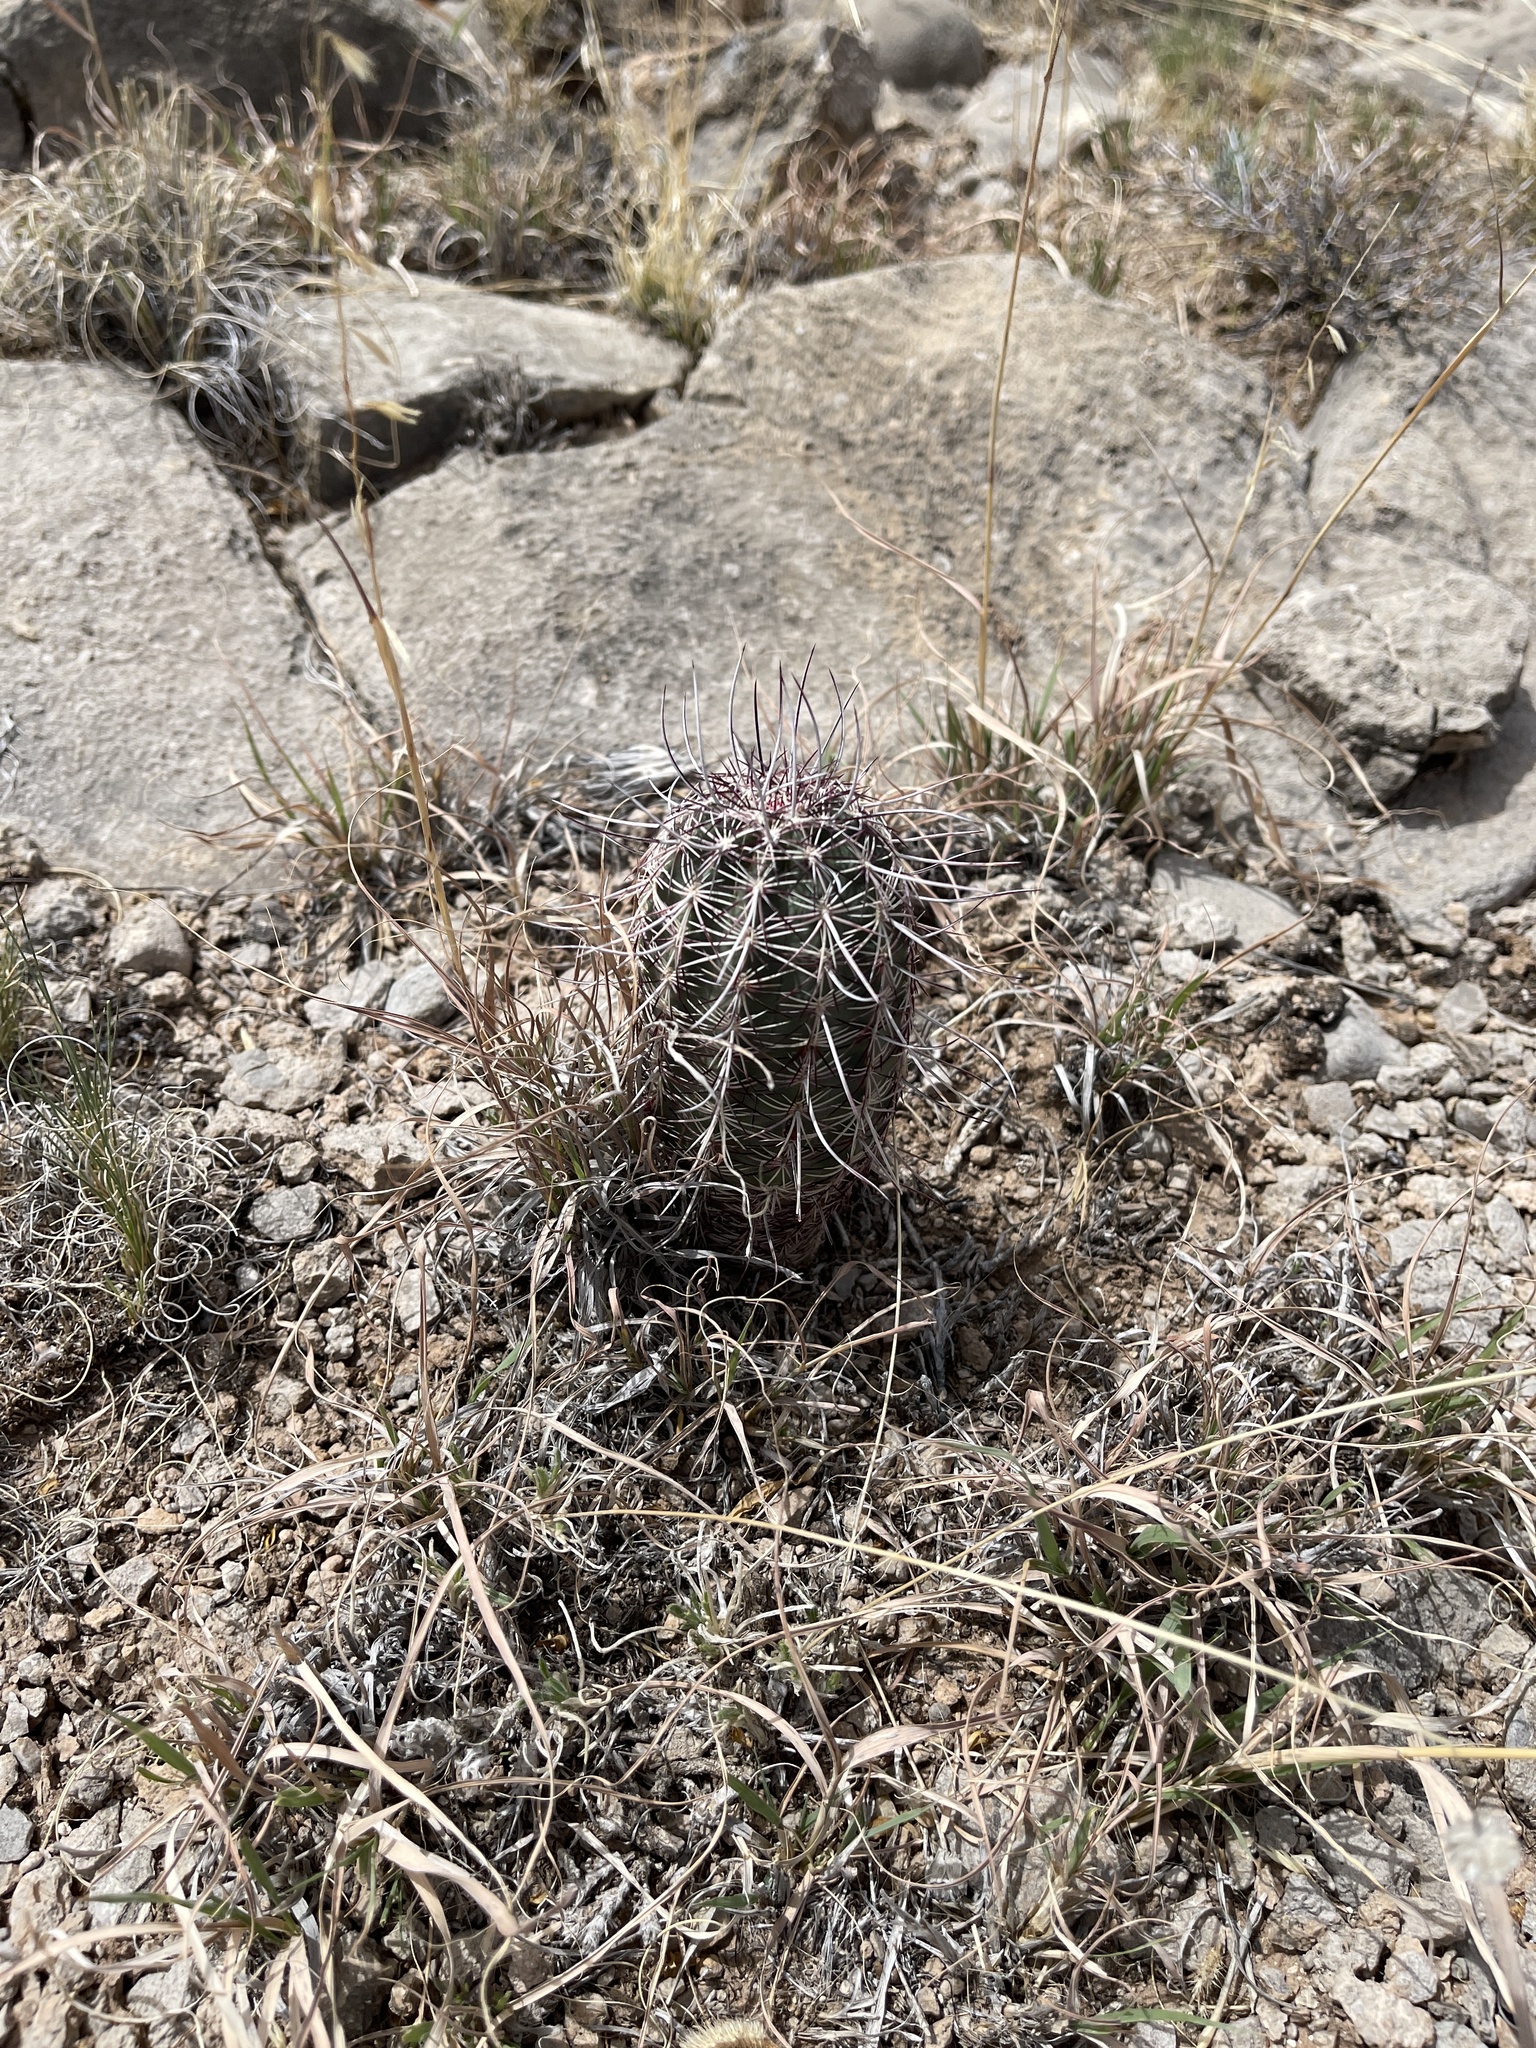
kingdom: Plantae
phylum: Tracheophyta
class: Magnoliopsida
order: Caryophyllales
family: Cactaceae
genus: Echinocereus
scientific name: Echinocereus viridiflorus
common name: Nylon hedgehog cactus
